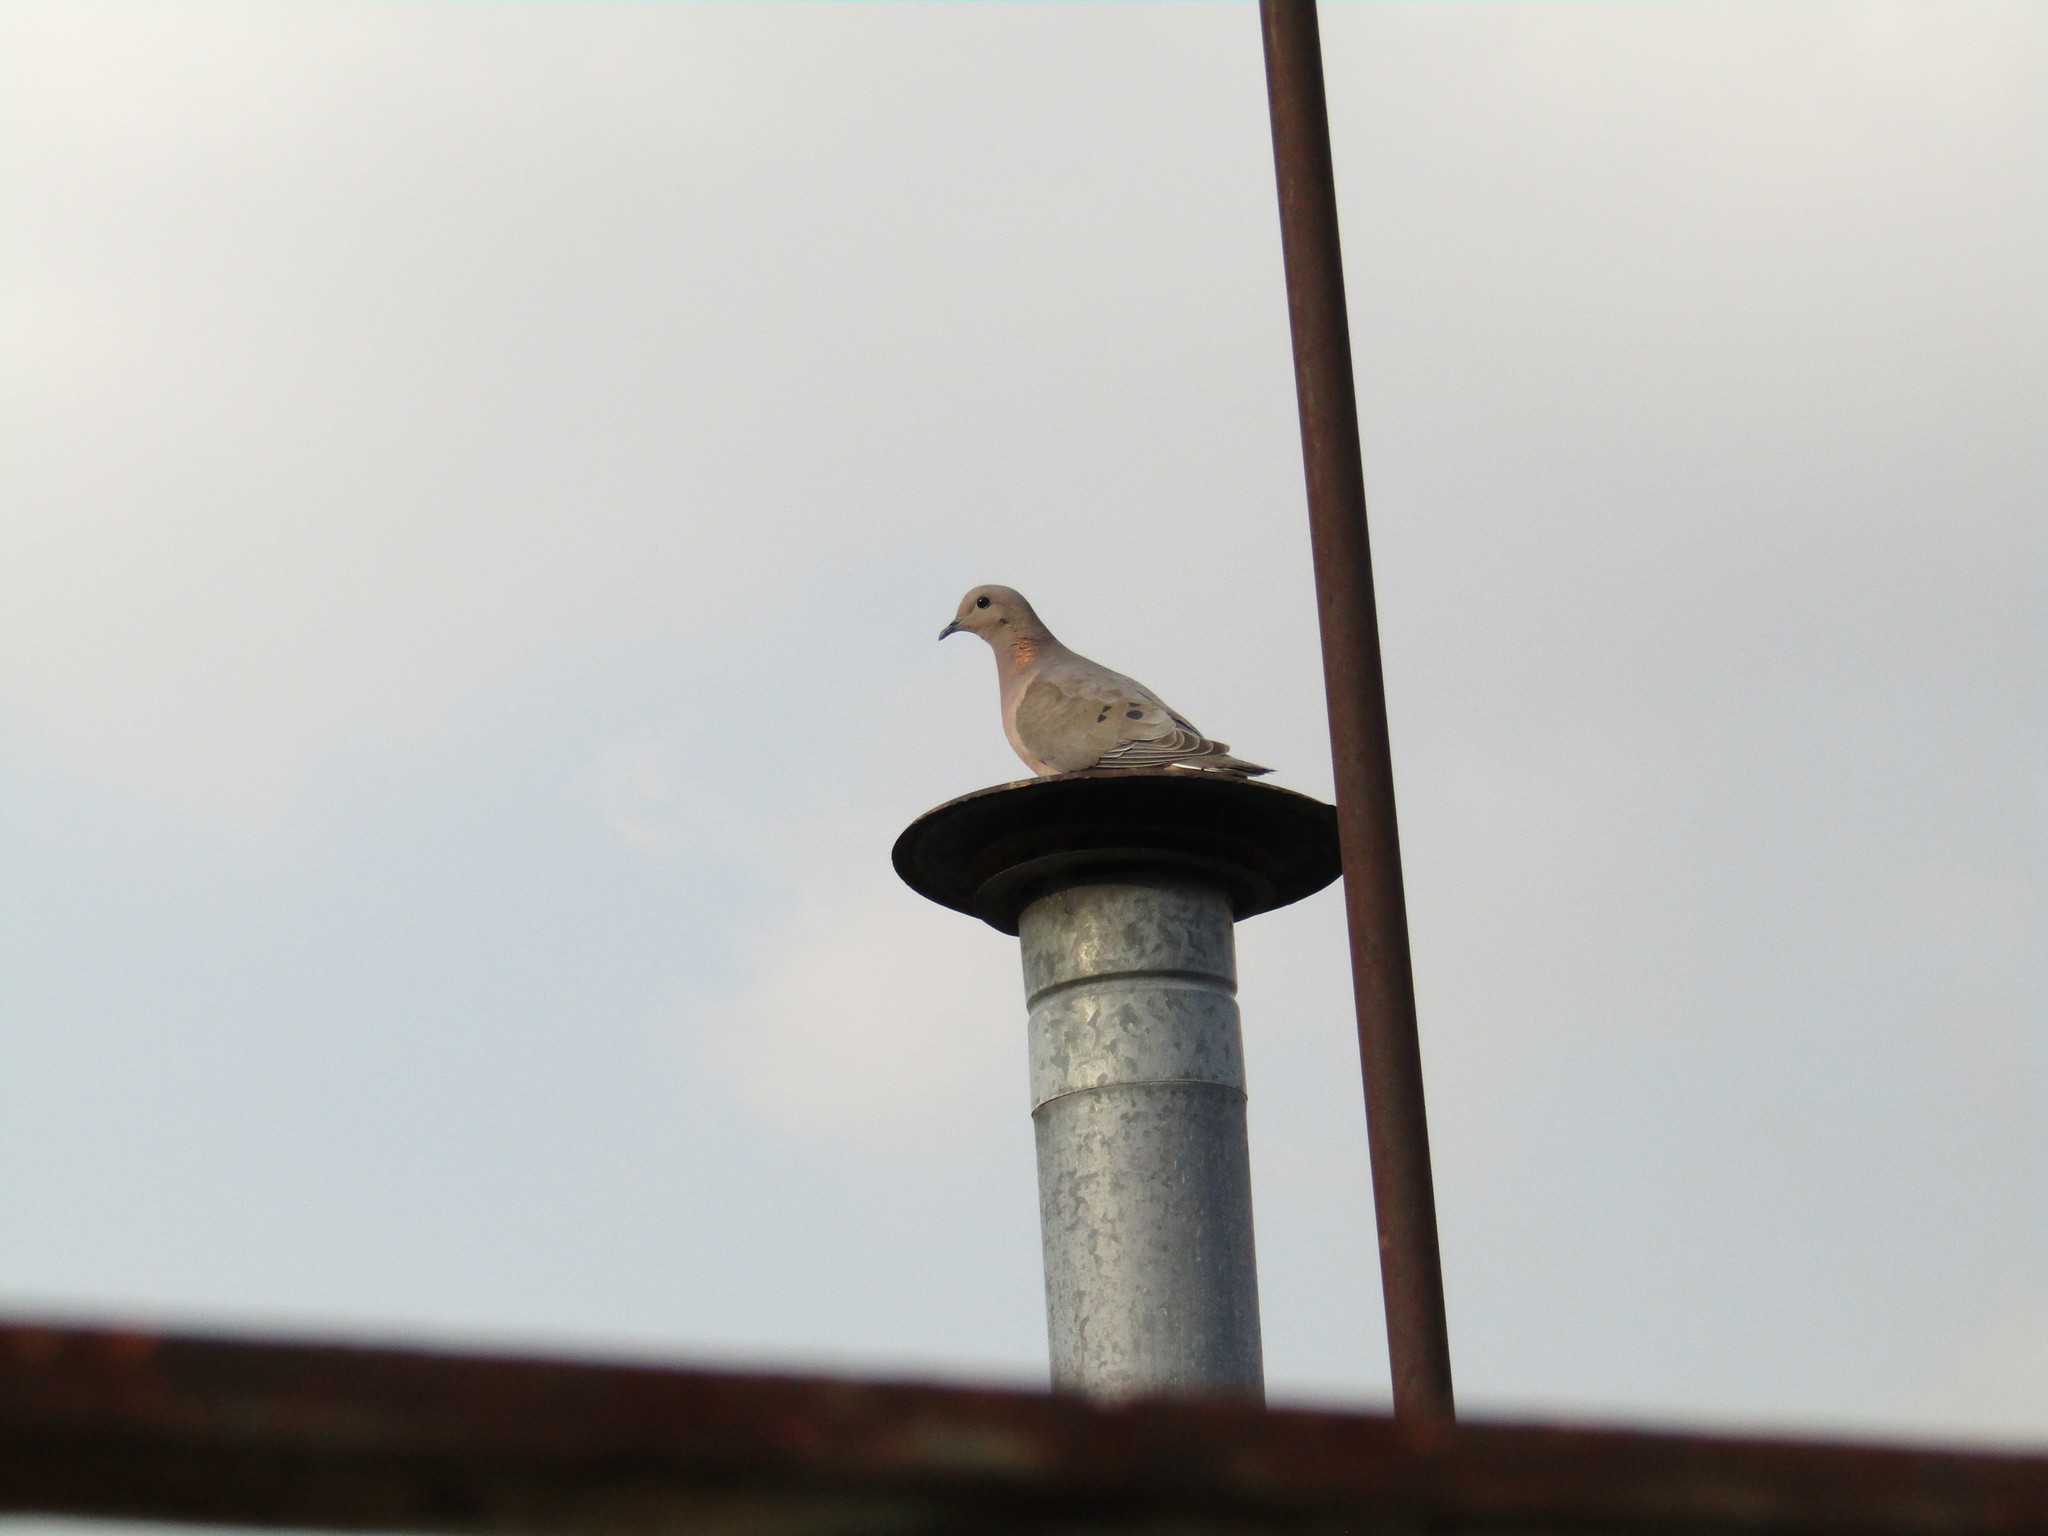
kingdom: Animalia
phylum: Chordata
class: Aves
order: Columbiformes
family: Columbidae
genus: Zenaida
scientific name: Zenaida auriculata
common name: Eared dove
